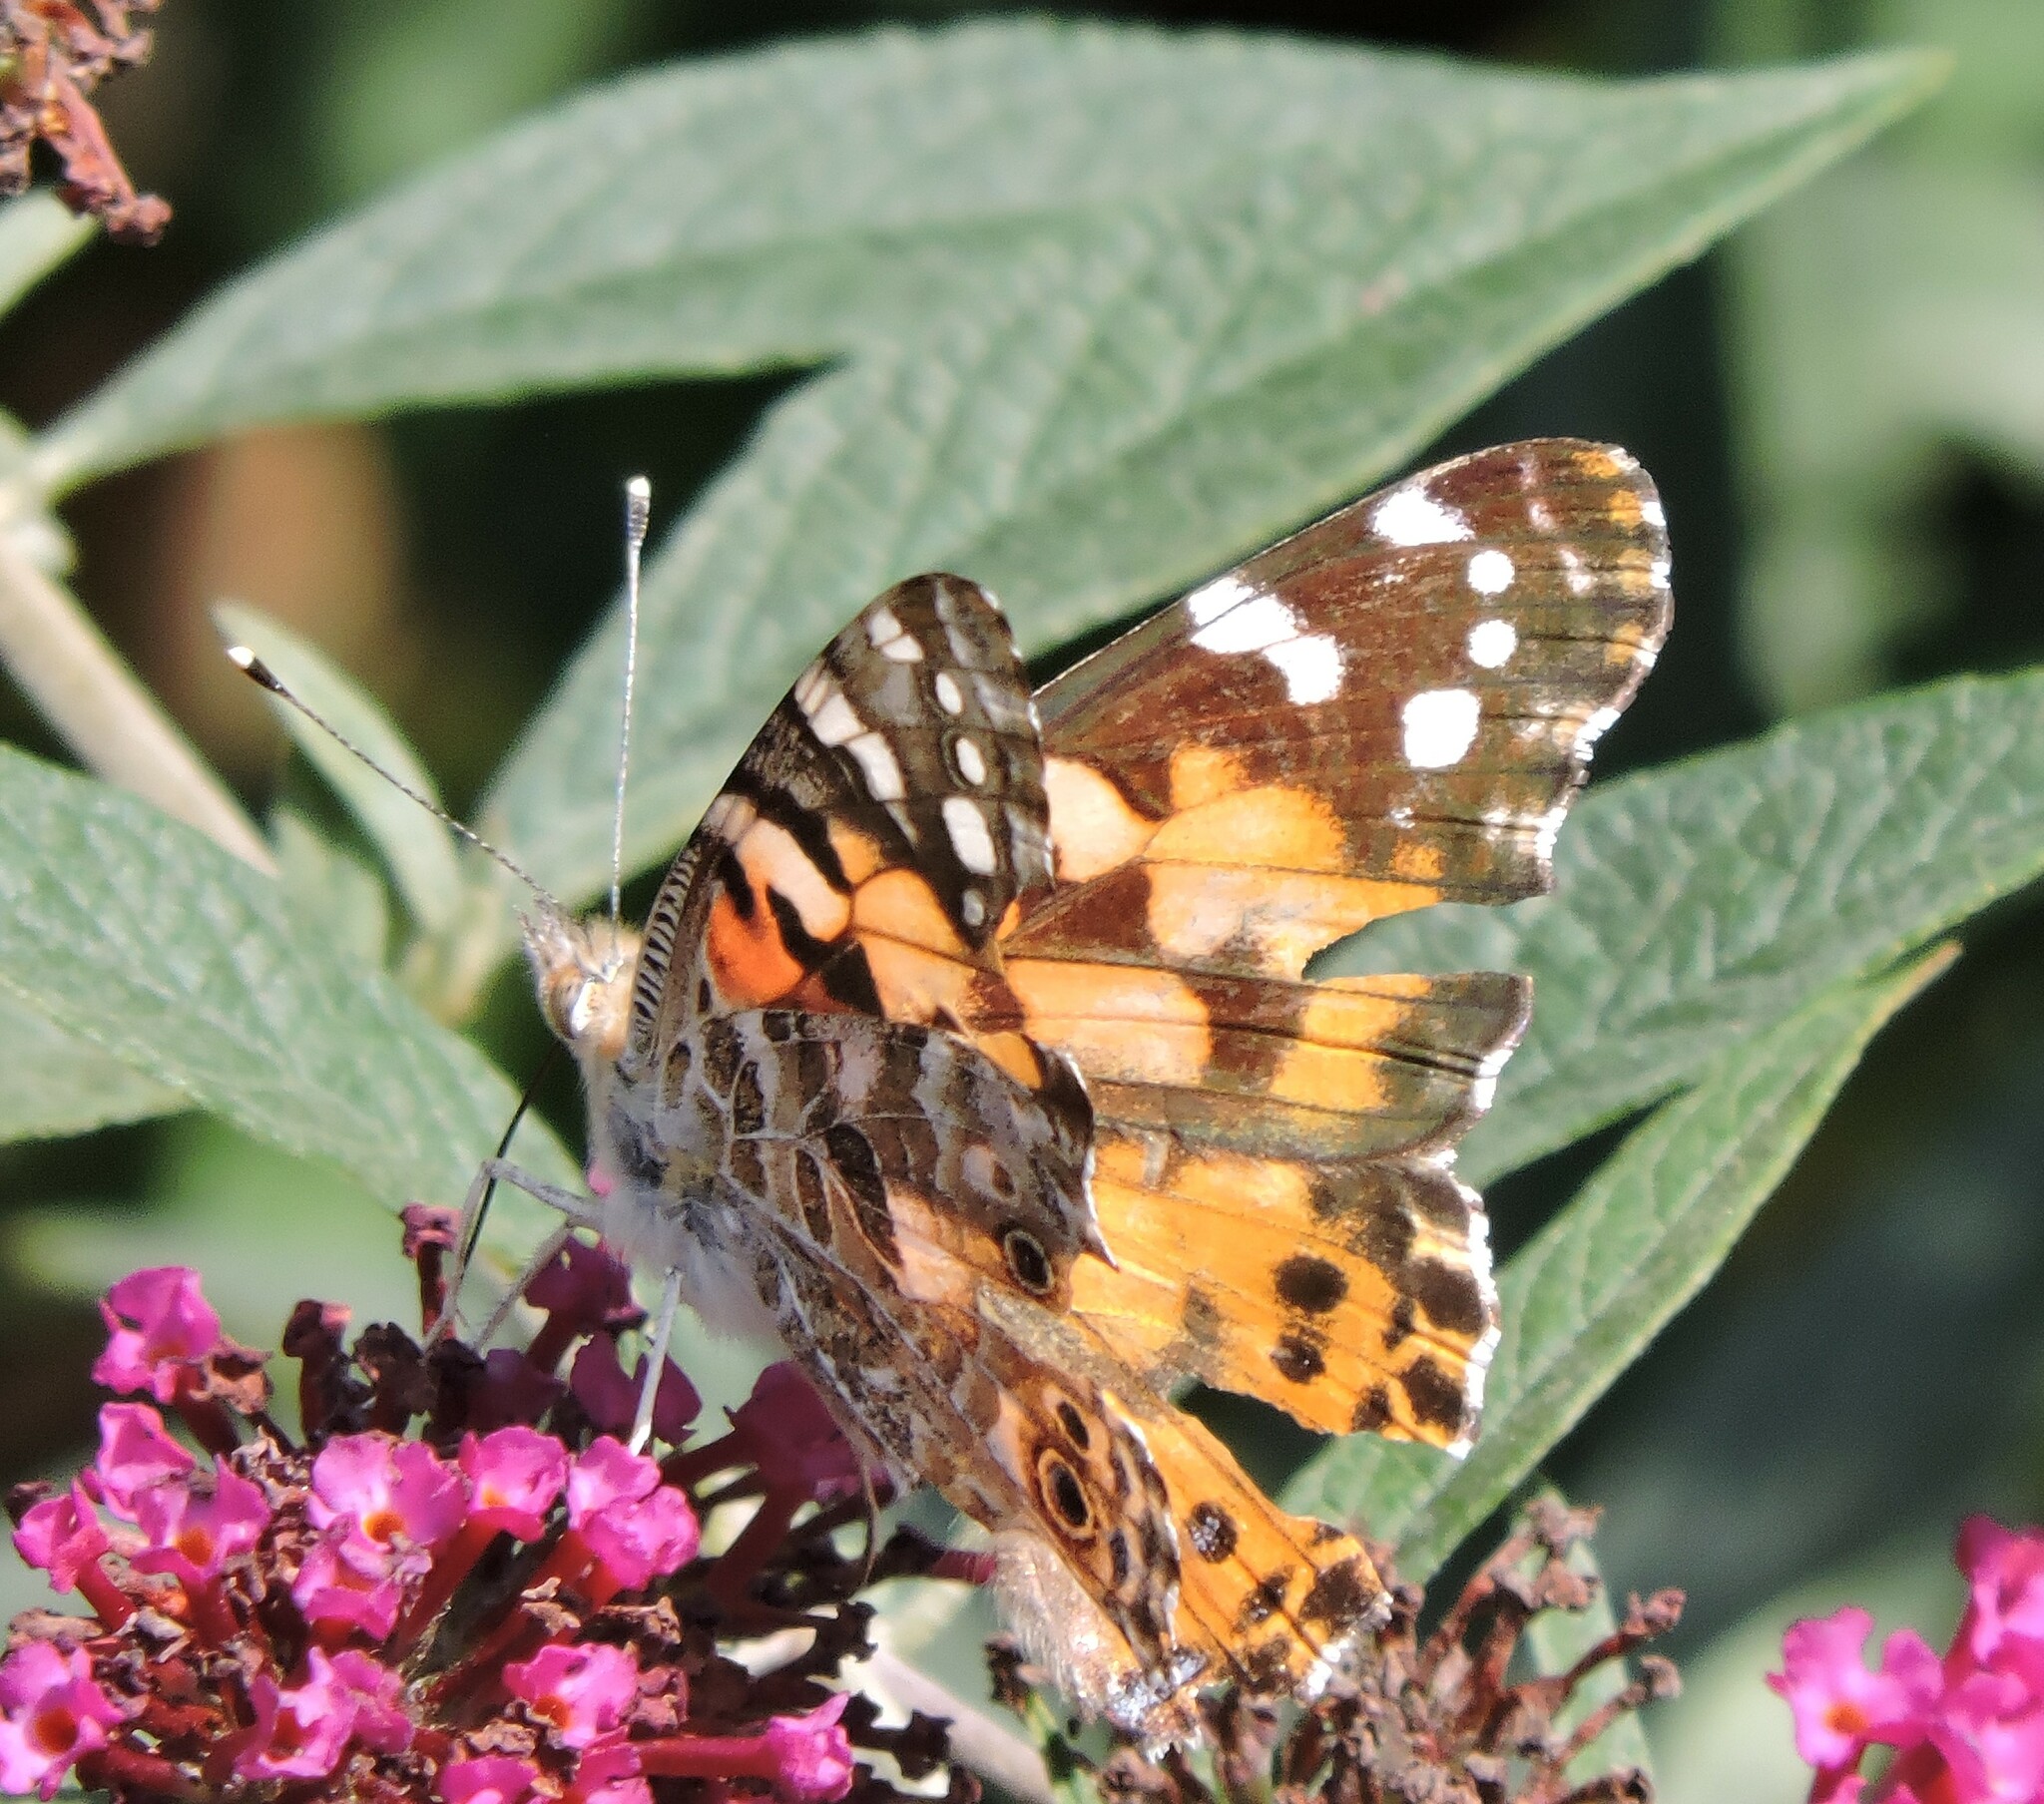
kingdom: Animalia
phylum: Arthropoda
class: Insecta
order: Lepidoptera
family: Nymphalidae
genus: Vanessa
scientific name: Vanessa cardui
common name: Painted lady
